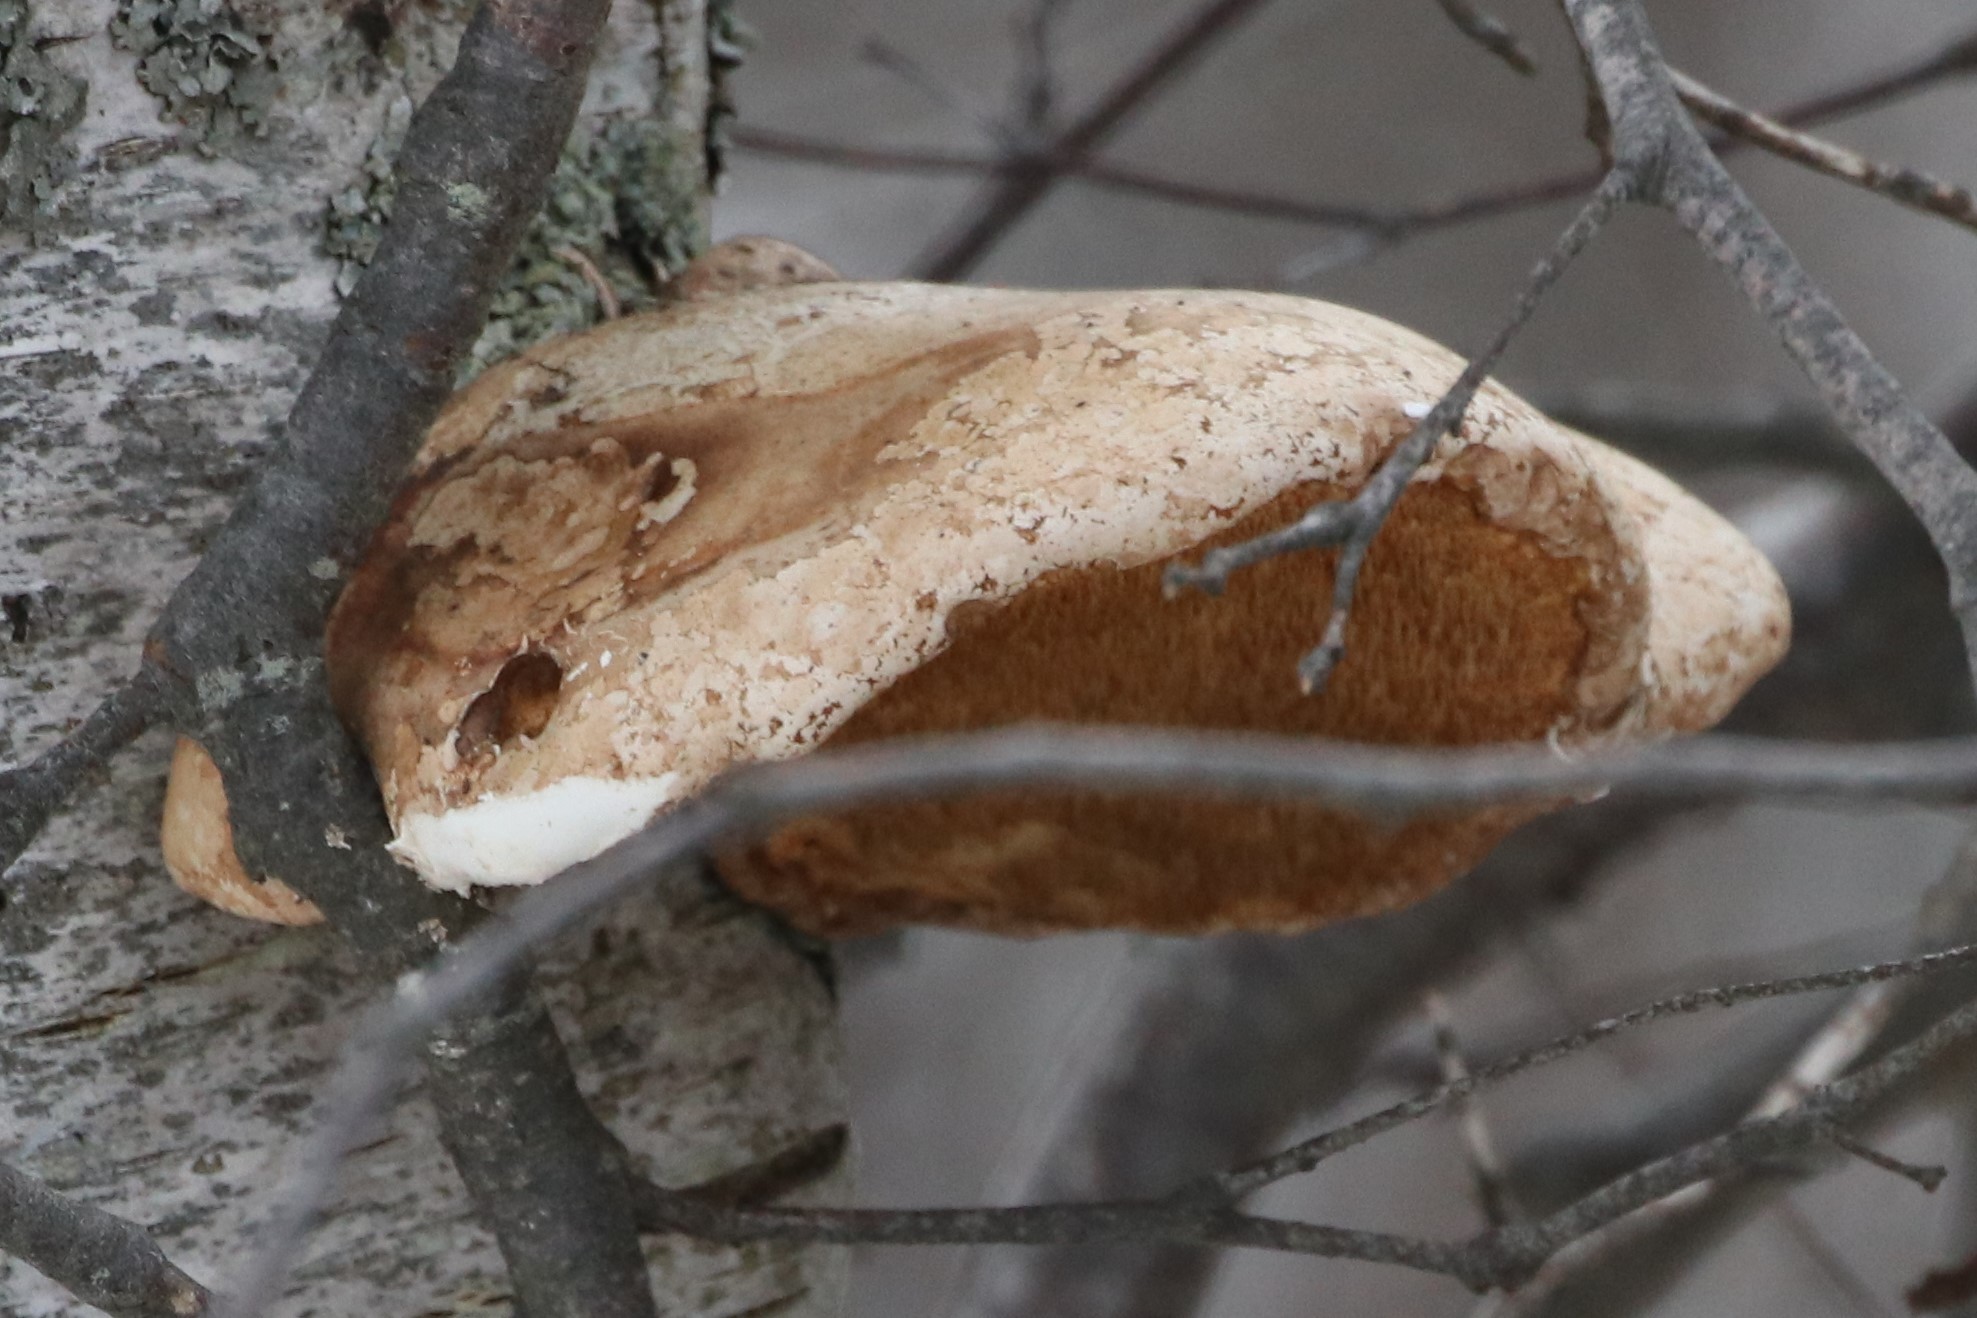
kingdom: Fungi
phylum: Basidiomycota
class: Agaricomycetes
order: Polyporales
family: Fomitopsidaceae
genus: Fomitopsis
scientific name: Fomitopsis betulina
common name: Birch polypore
